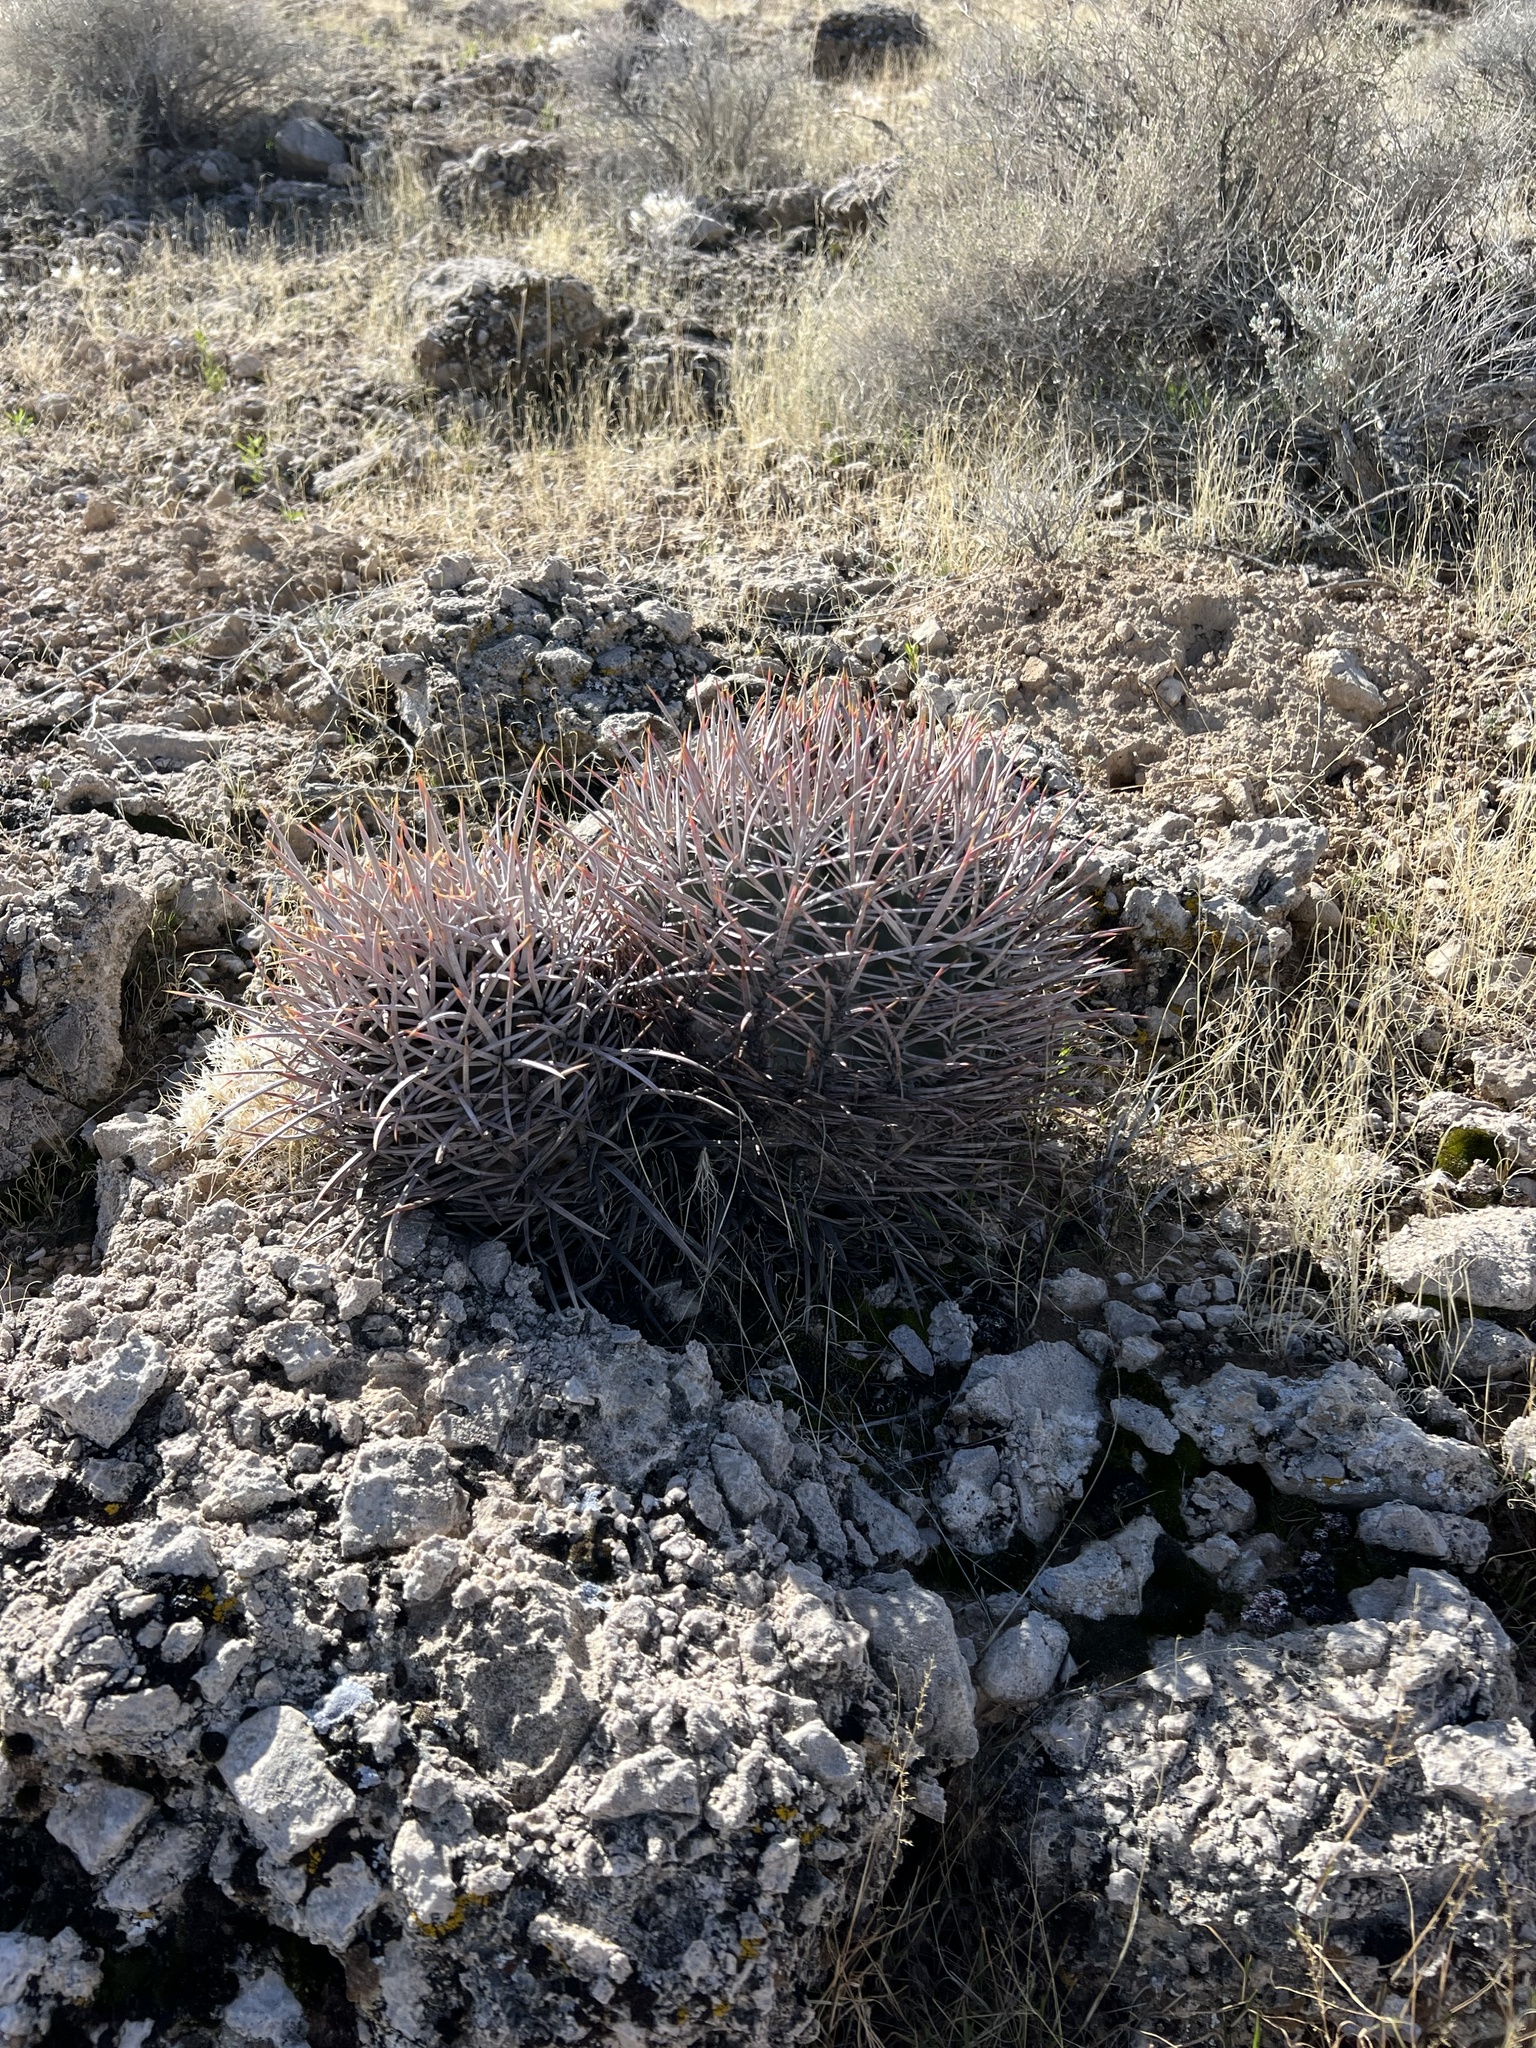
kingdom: Plantae
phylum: Tracheophyta
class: Magnoliopsida
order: Caryophyllales
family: Cactaceae
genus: Echinocactus
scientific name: Echinocactus polycephalus
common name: Cottontop cactus
